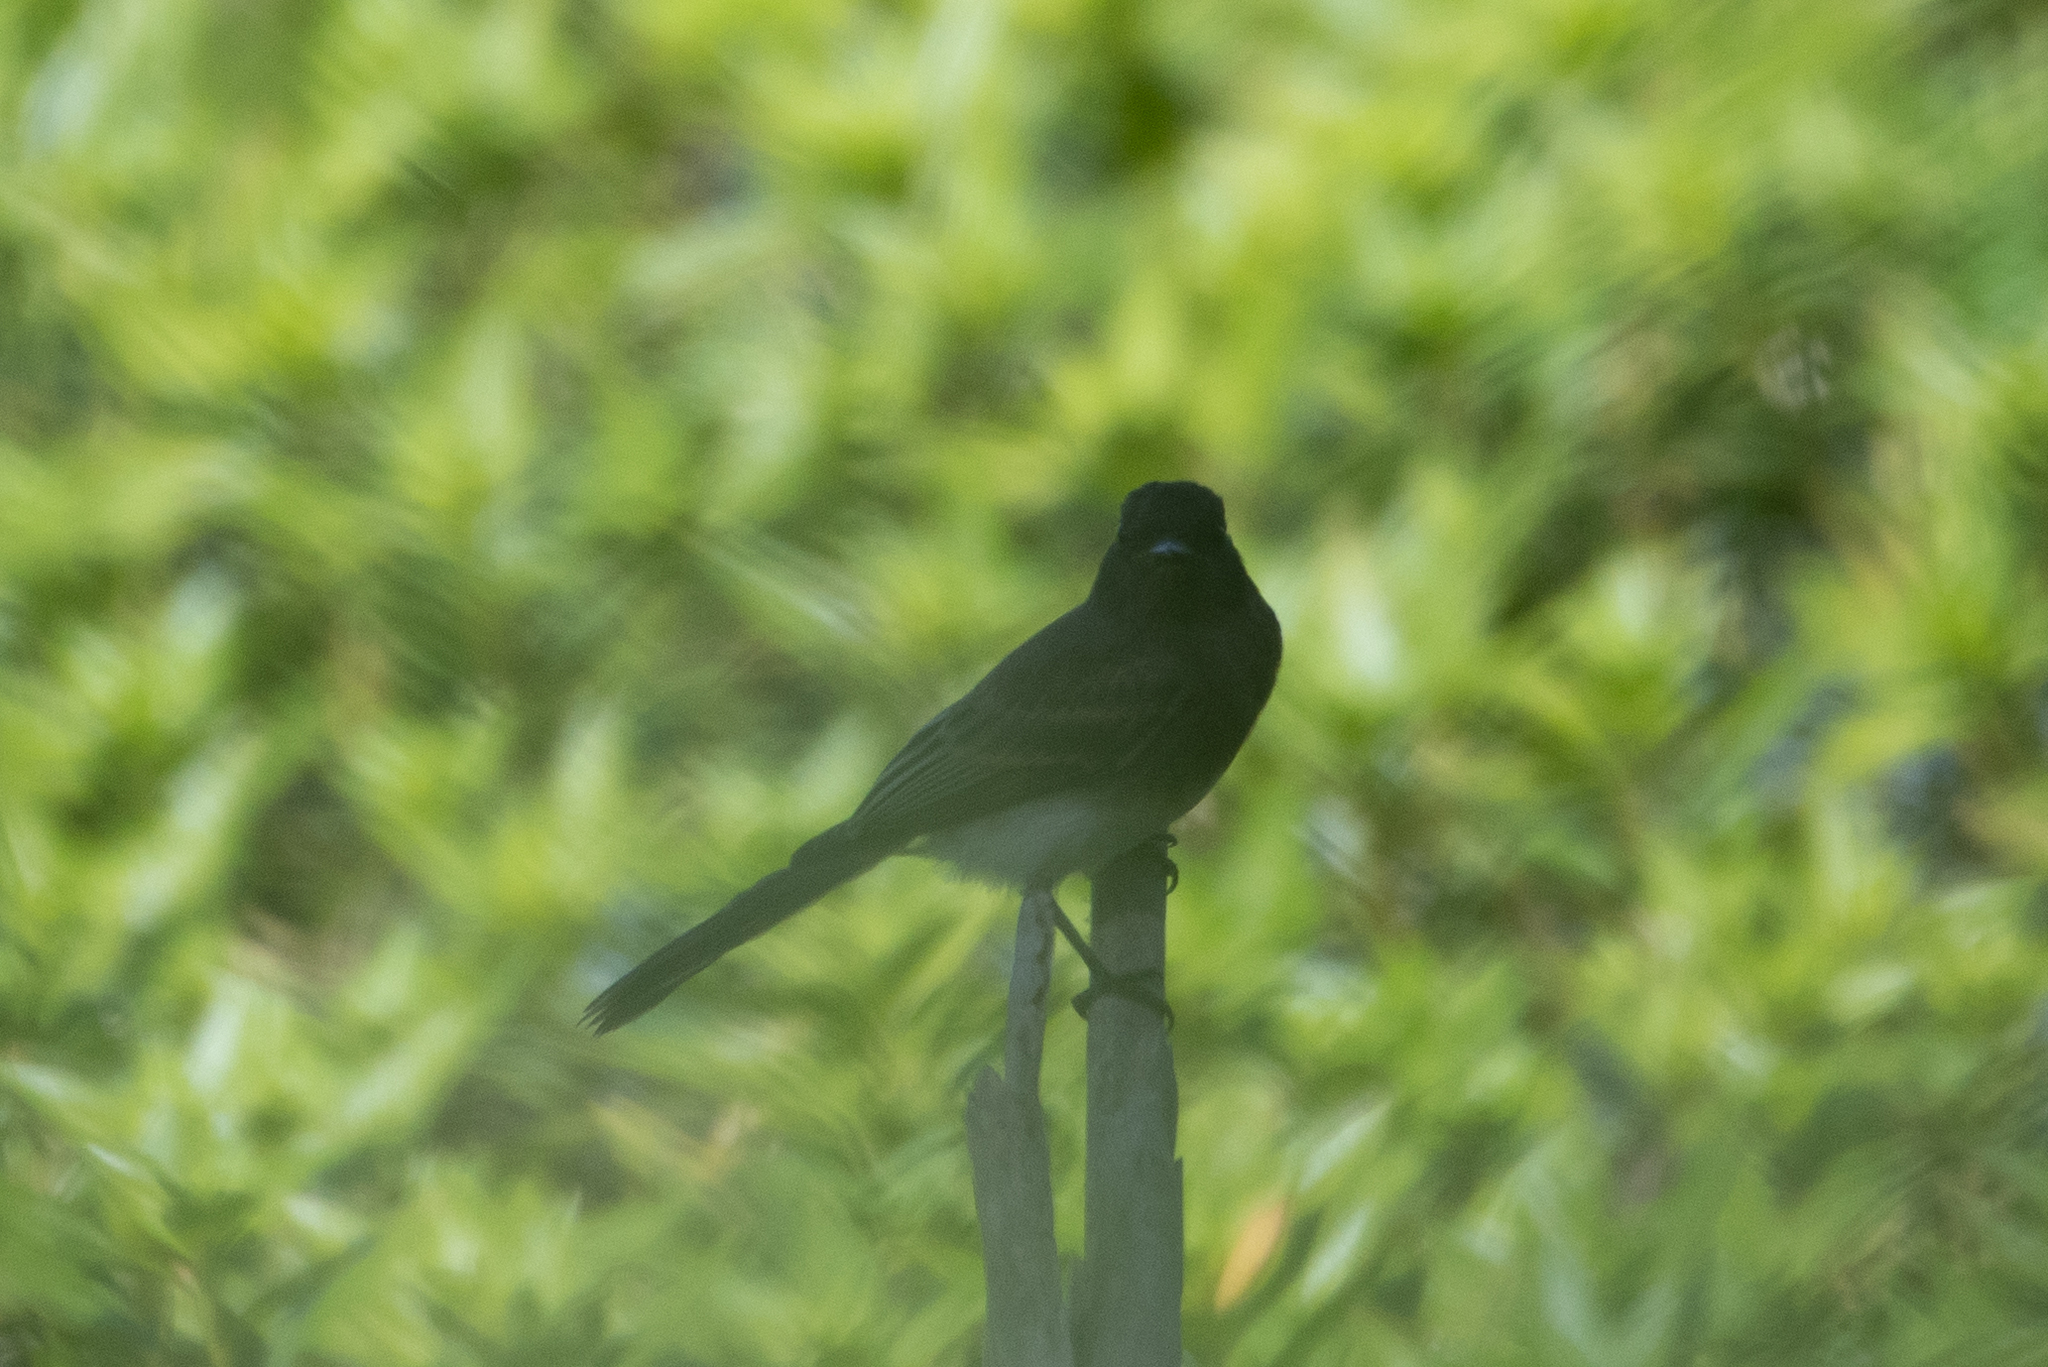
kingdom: Animalia
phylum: Chordata
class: Aves
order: Passeriformes
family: Tyrannidae
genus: Sayornis
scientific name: Sayornis nigricans
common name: Black phoebe
